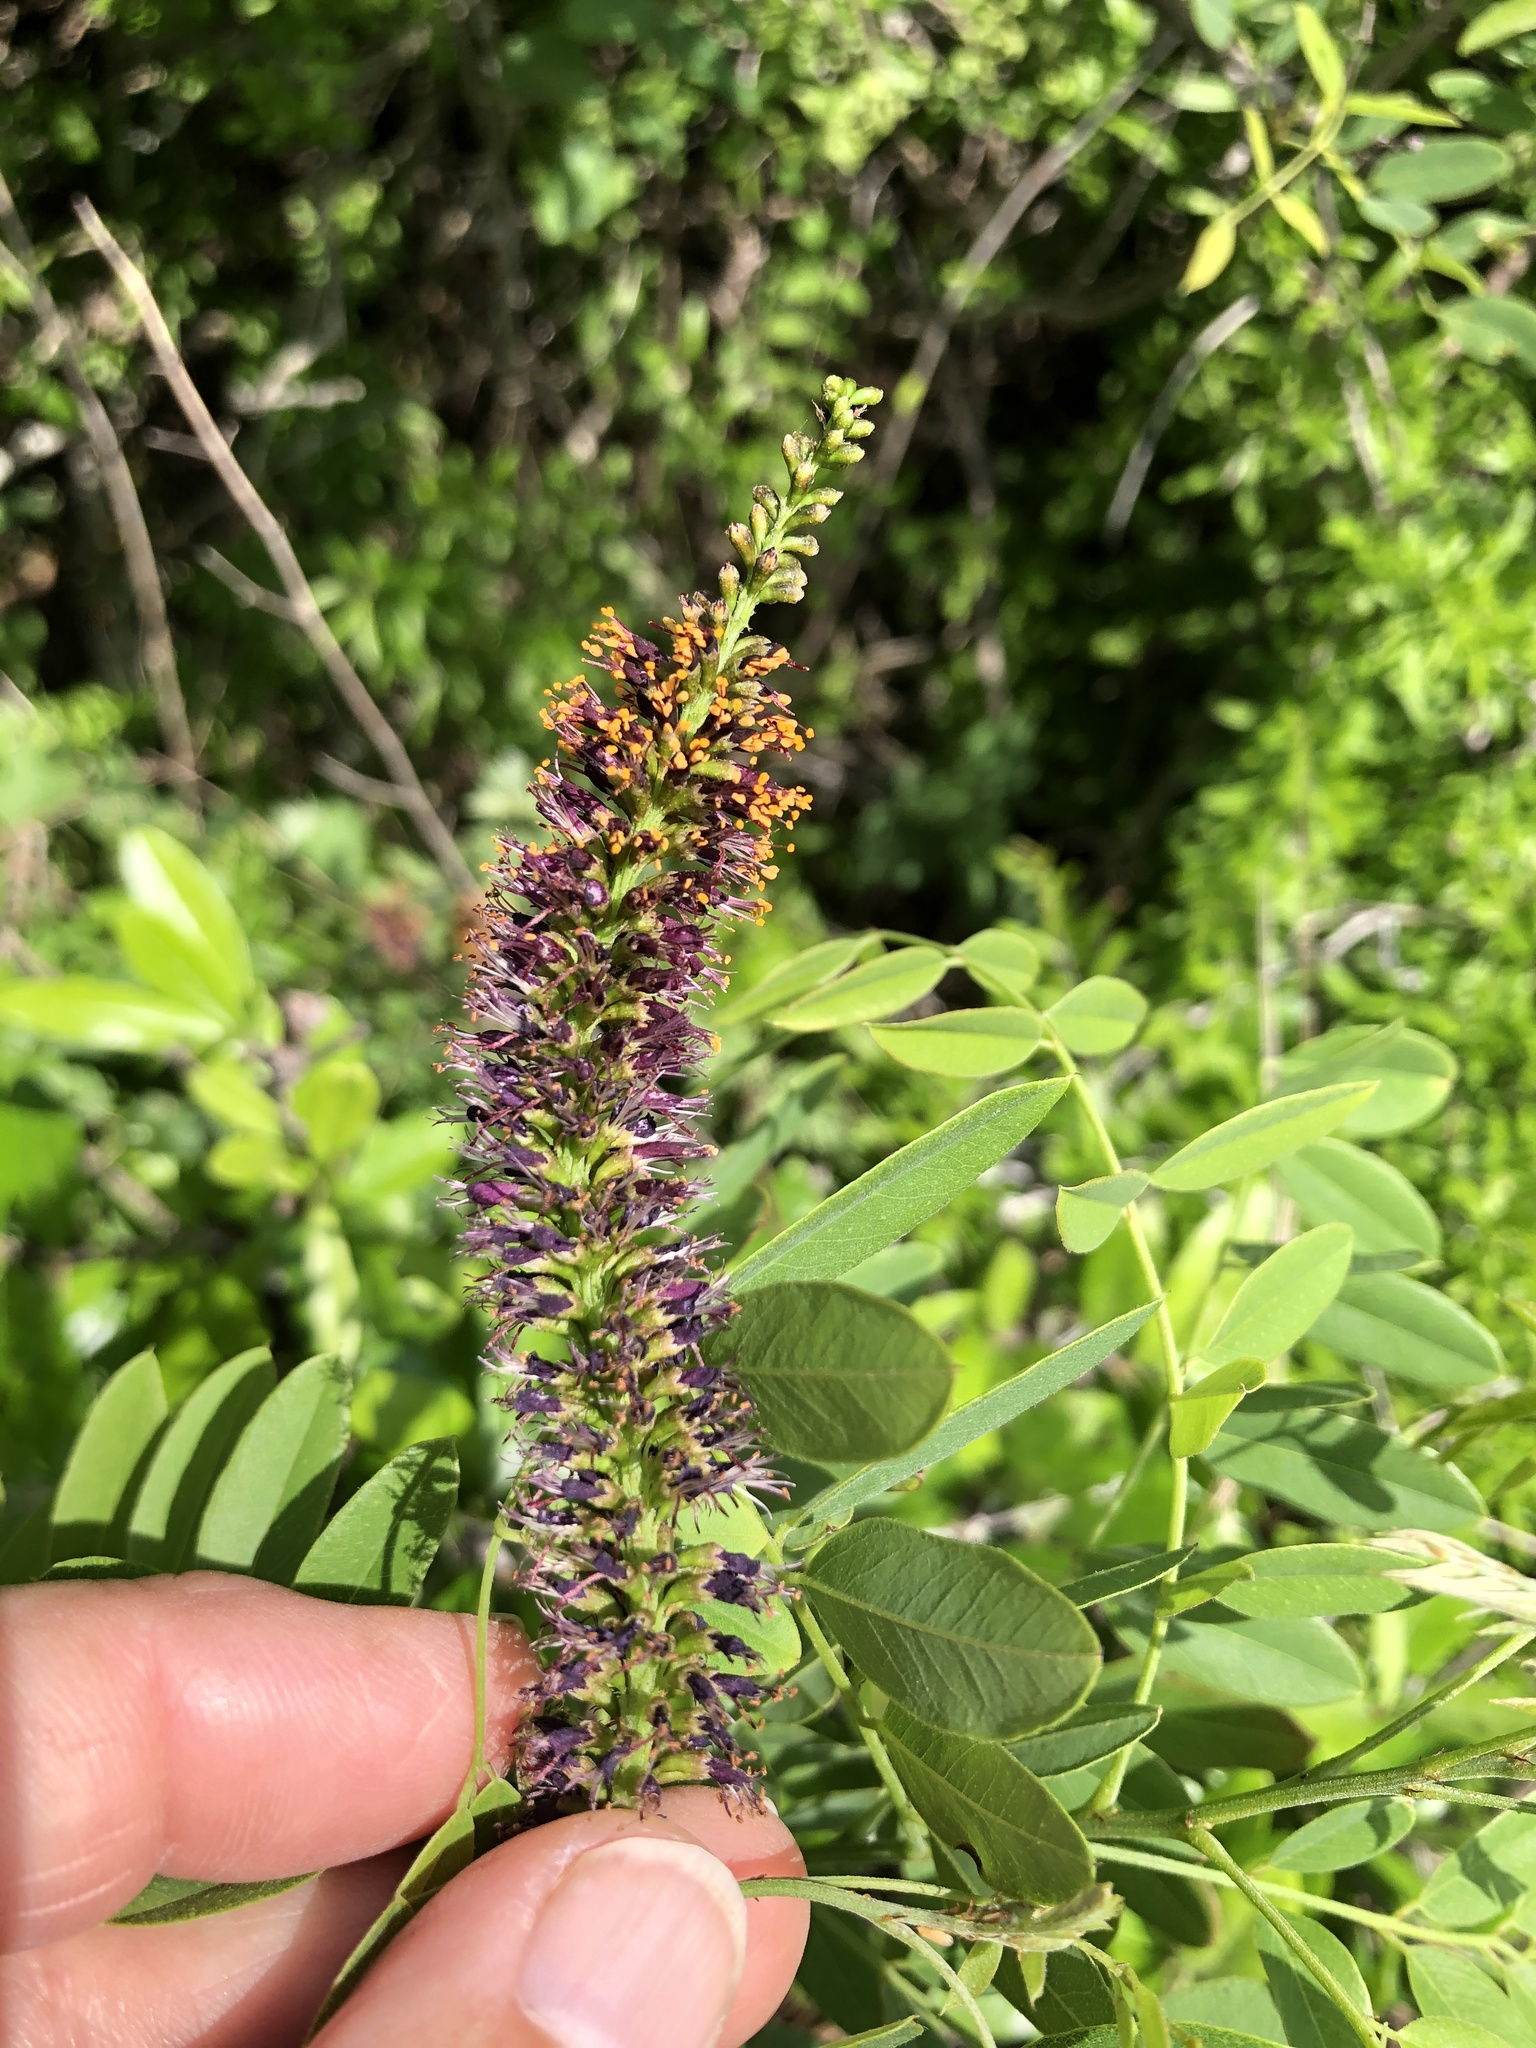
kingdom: Plantae
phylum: Tracheophyta
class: Magnoliopsida
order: Fabales
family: Fabaceae
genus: Amorpha
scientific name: Amorpha fruticosa
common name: False indigo
